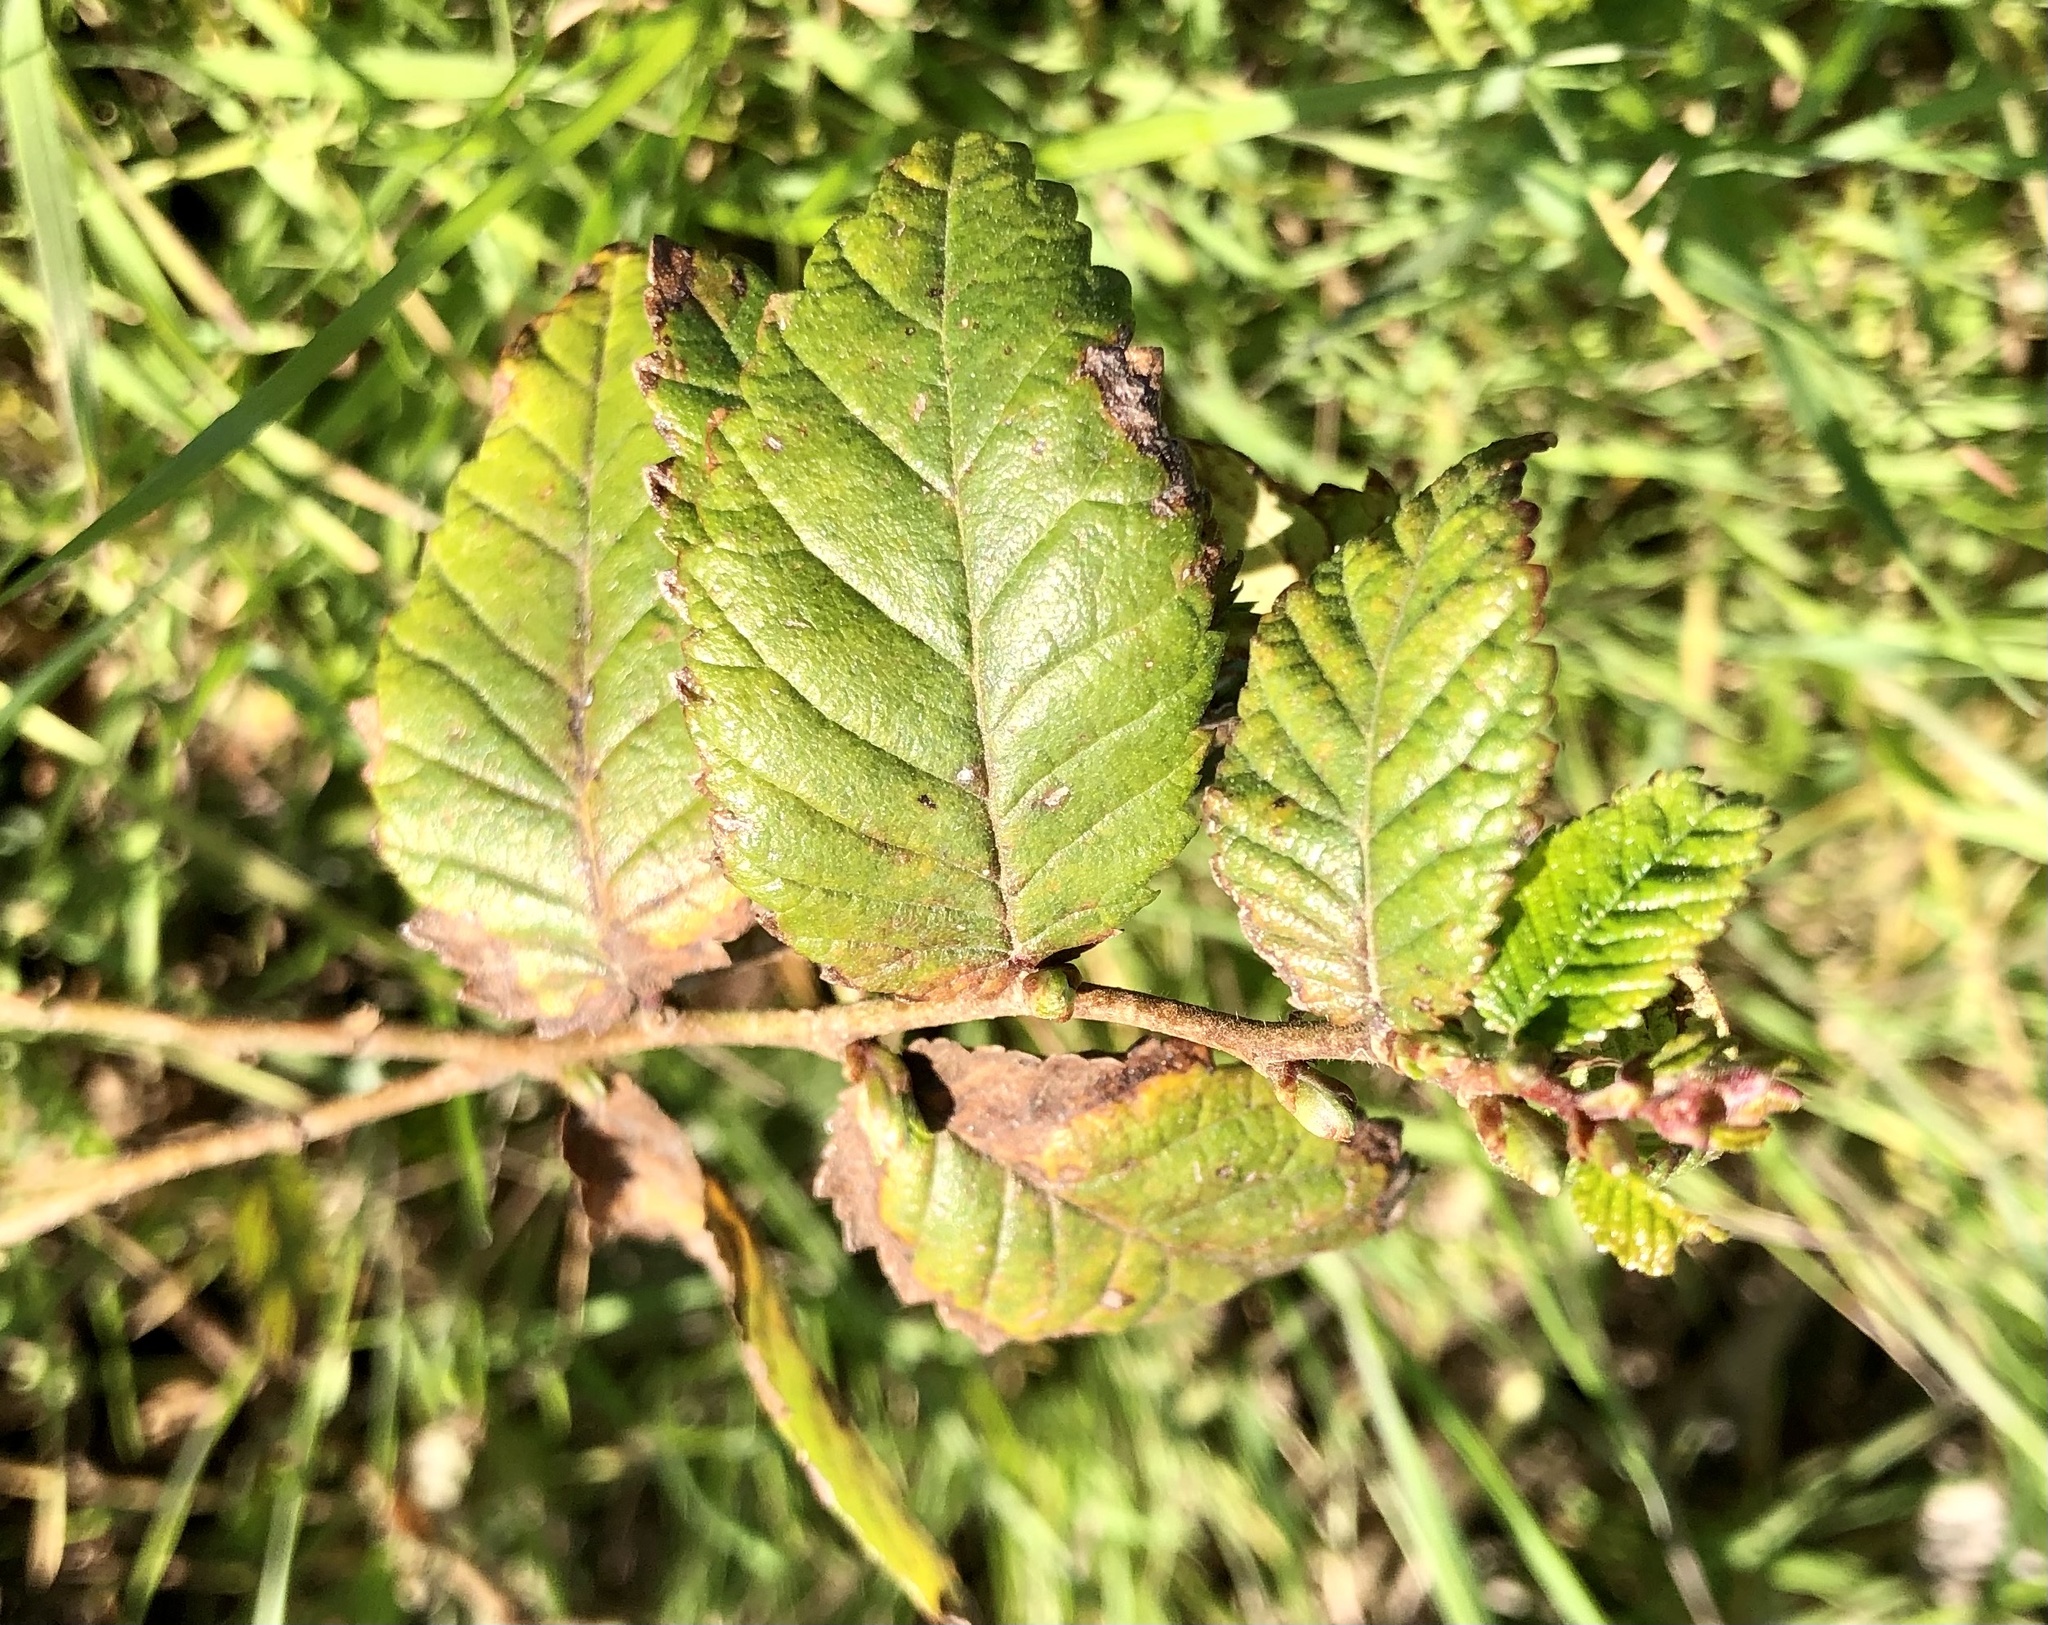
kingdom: Plantae
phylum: Tracheophyta
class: Magnoliopsida
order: Rosales
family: Ulmaceae
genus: Ulmus
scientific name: Ulmus crassifolia
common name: Basket elm
